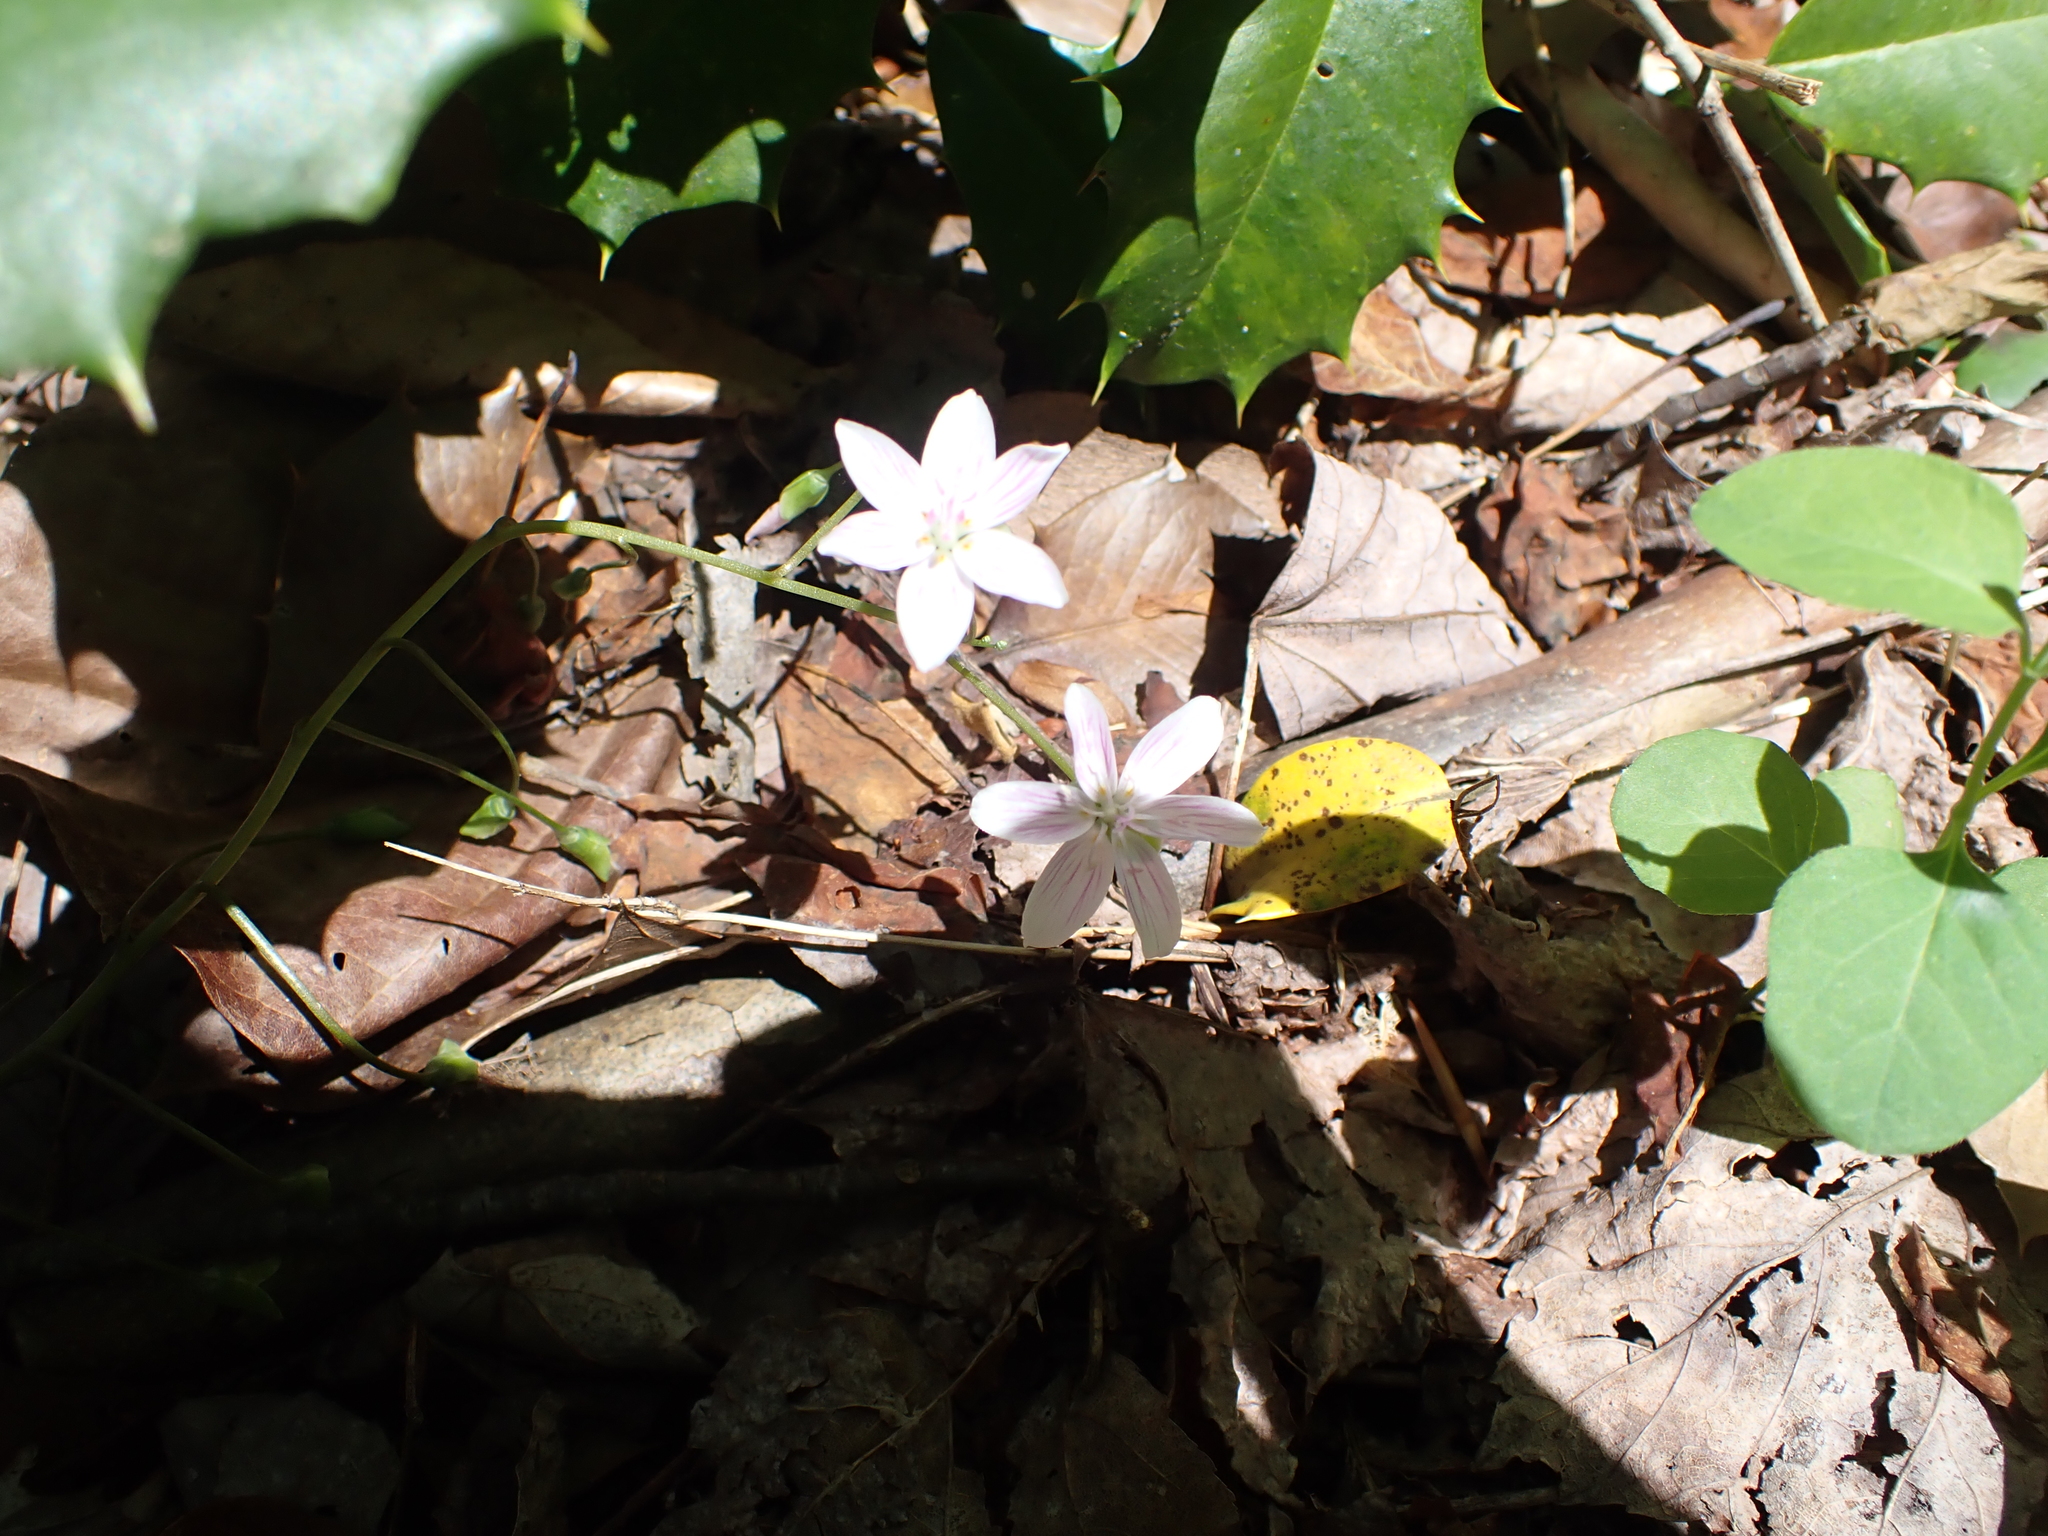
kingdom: Plantae
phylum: Tracheophyta
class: Magnoliopsida
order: Caryophyllales
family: Montiaceae
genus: Claytonia
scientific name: Claytonia virginica
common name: Virginia springbeauty
